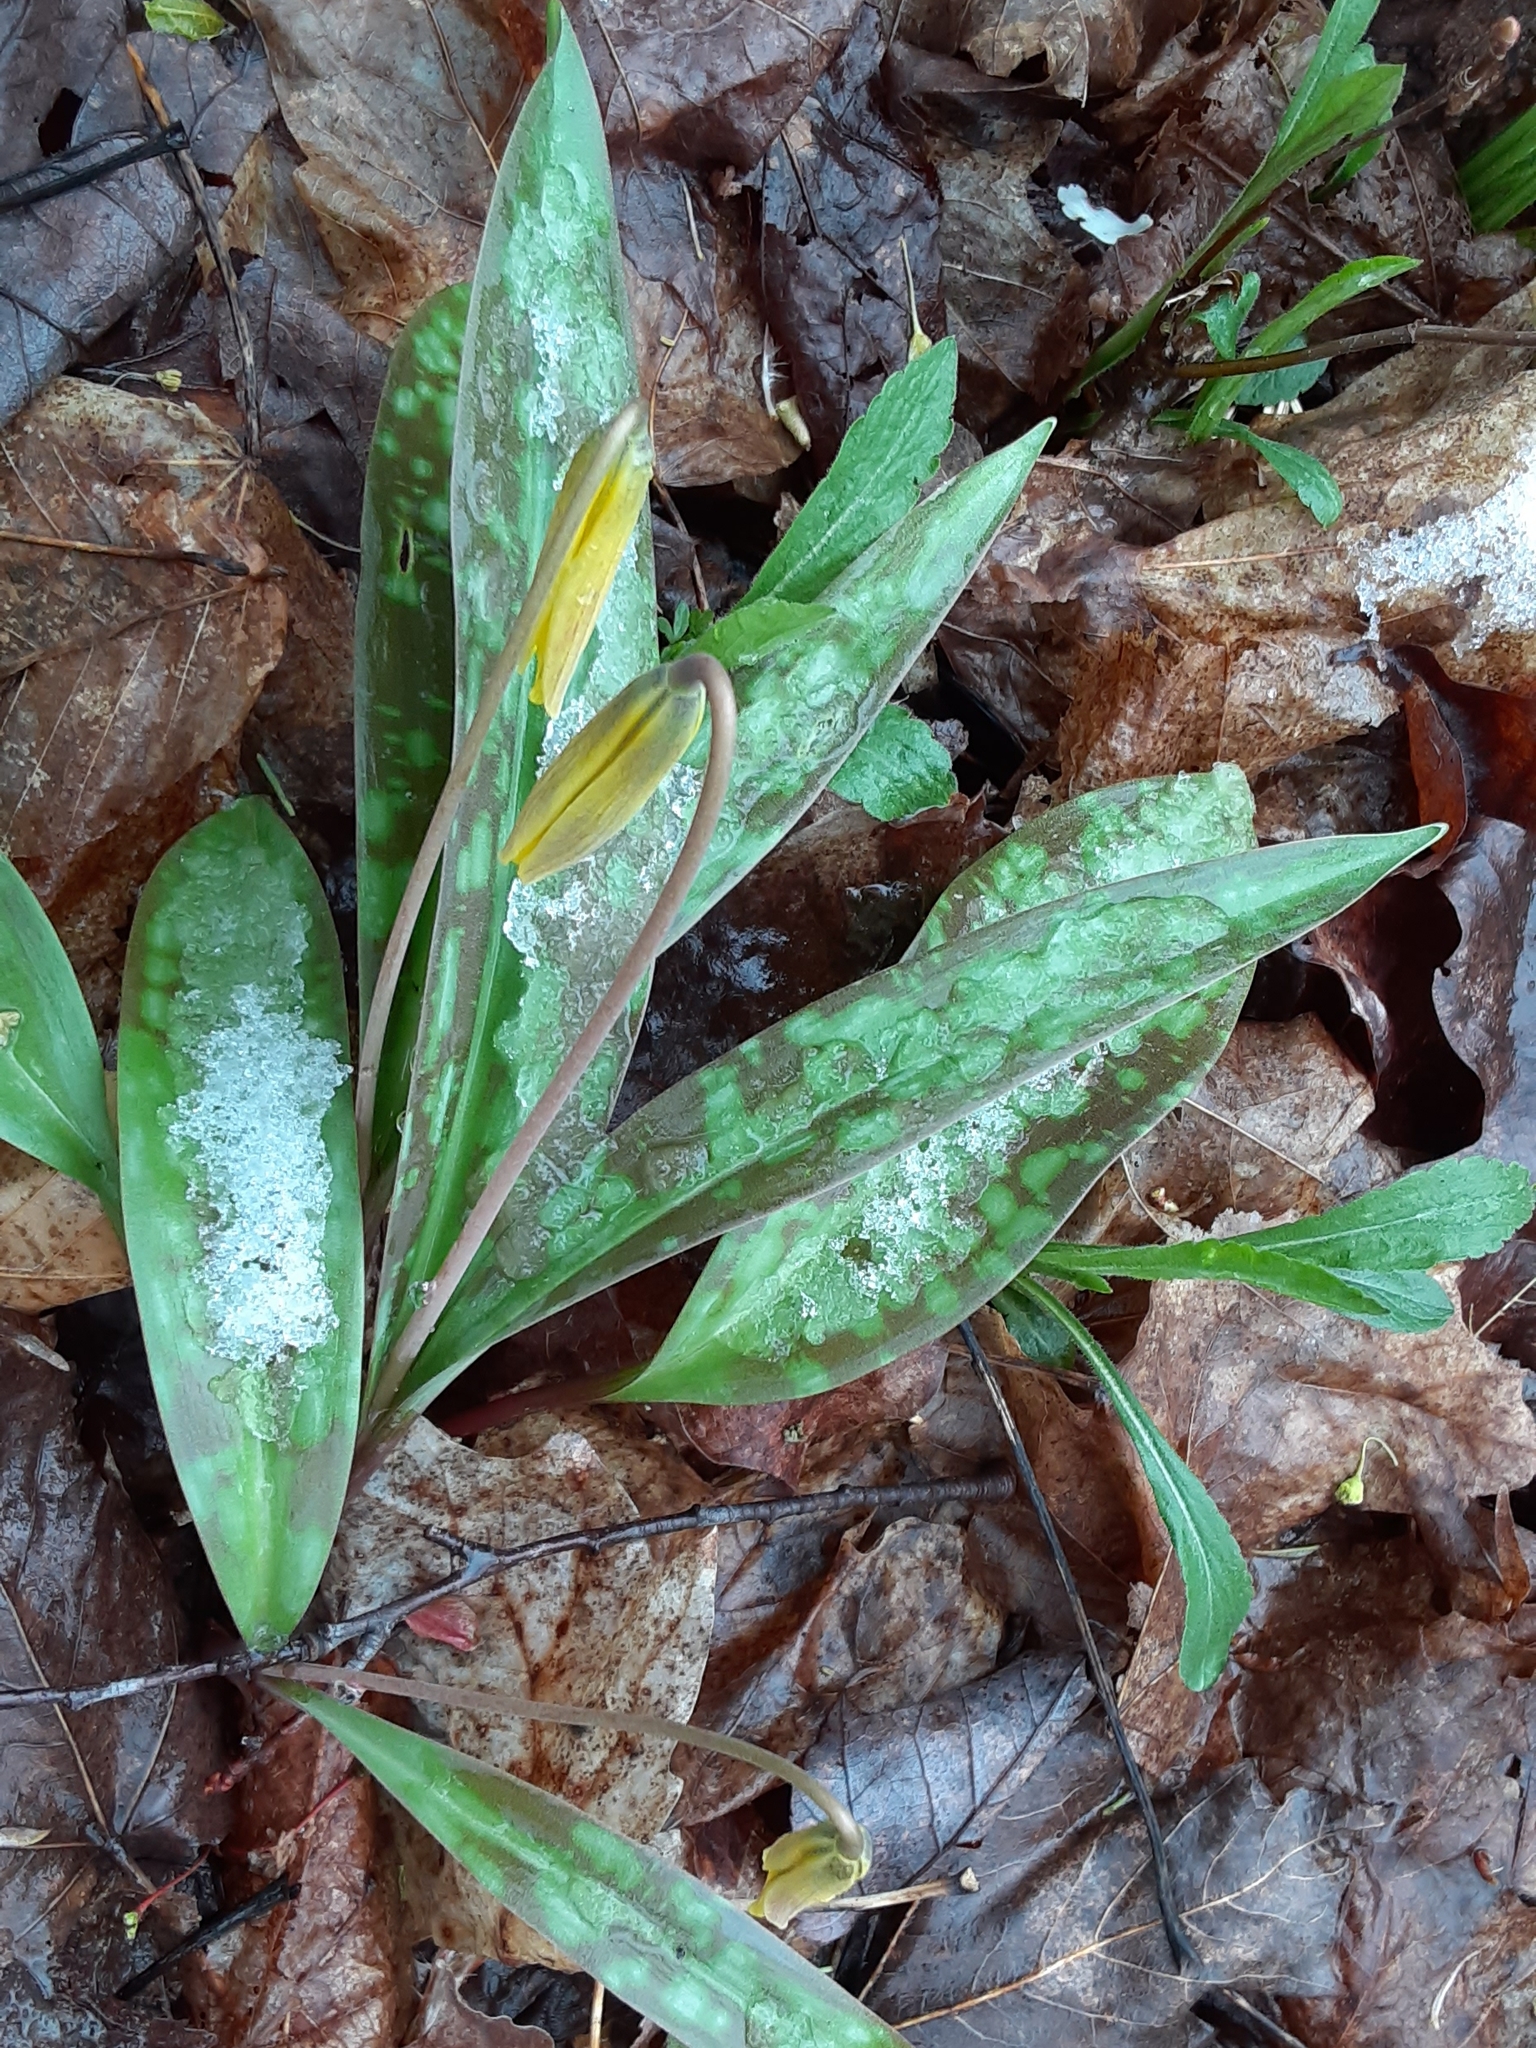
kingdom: Plantae
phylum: Tracheophyta
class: Liliopsida
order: Liliales
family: Liliaceae
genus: Erythronium
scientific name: Erythronium americanum
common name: Yellow adder's-tongue
